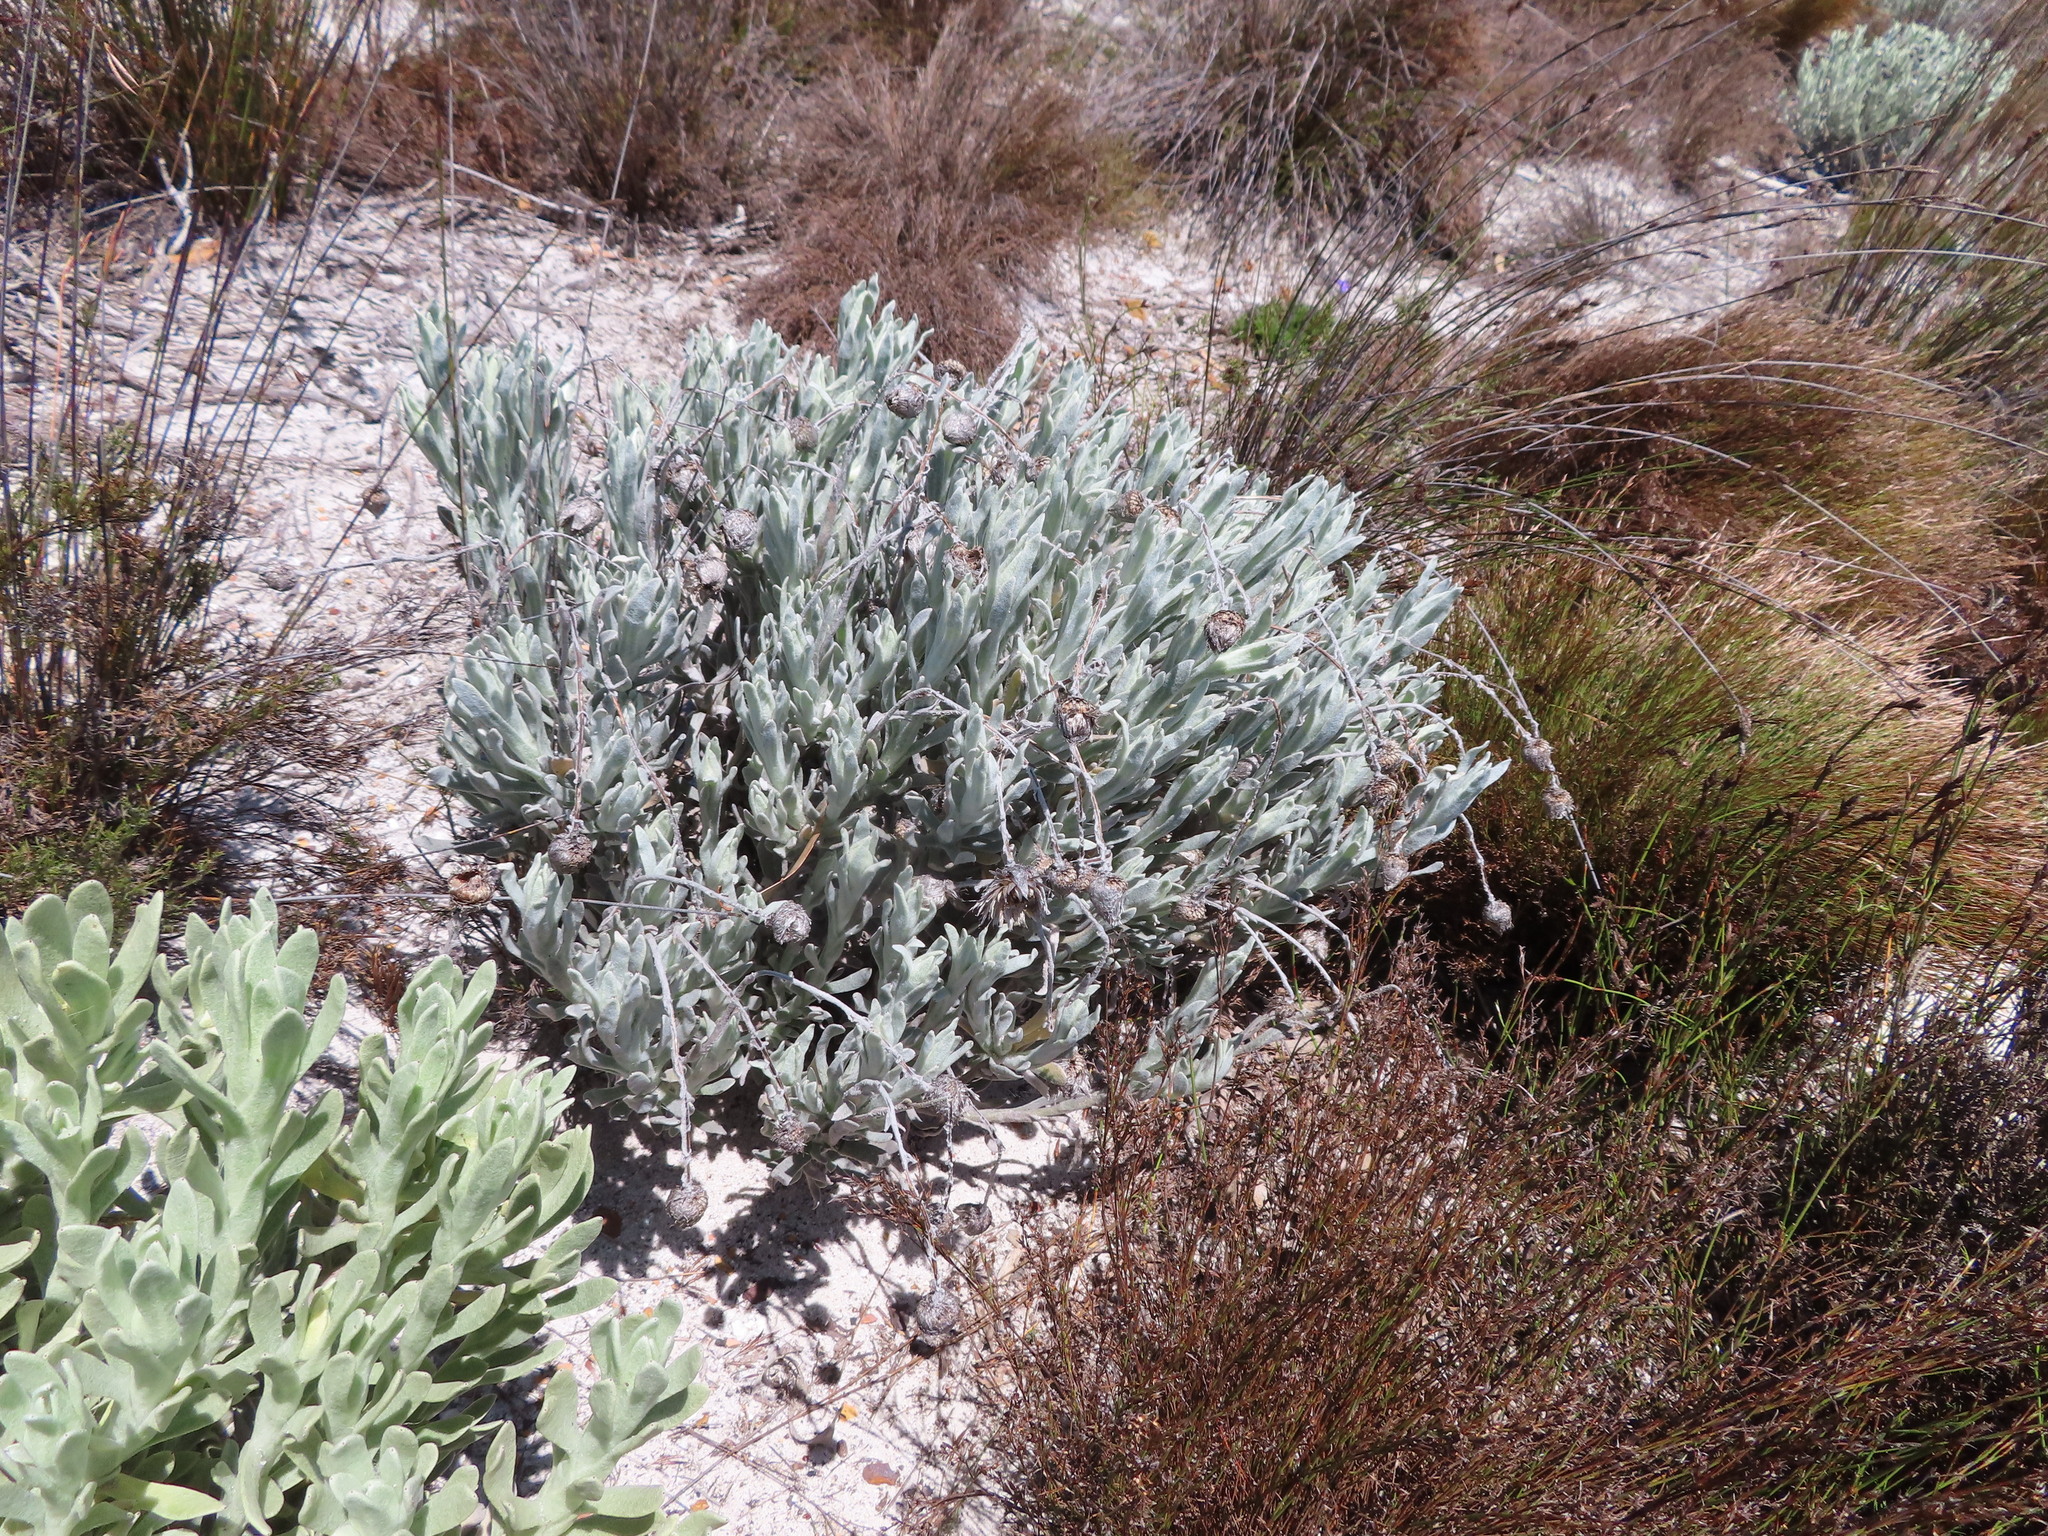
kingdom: Plantae
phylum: Tracheophyta
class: Magnoliopsida
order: Asterales
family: Asteraceae
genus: Syncarpha
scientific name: Syncarpha vestita
